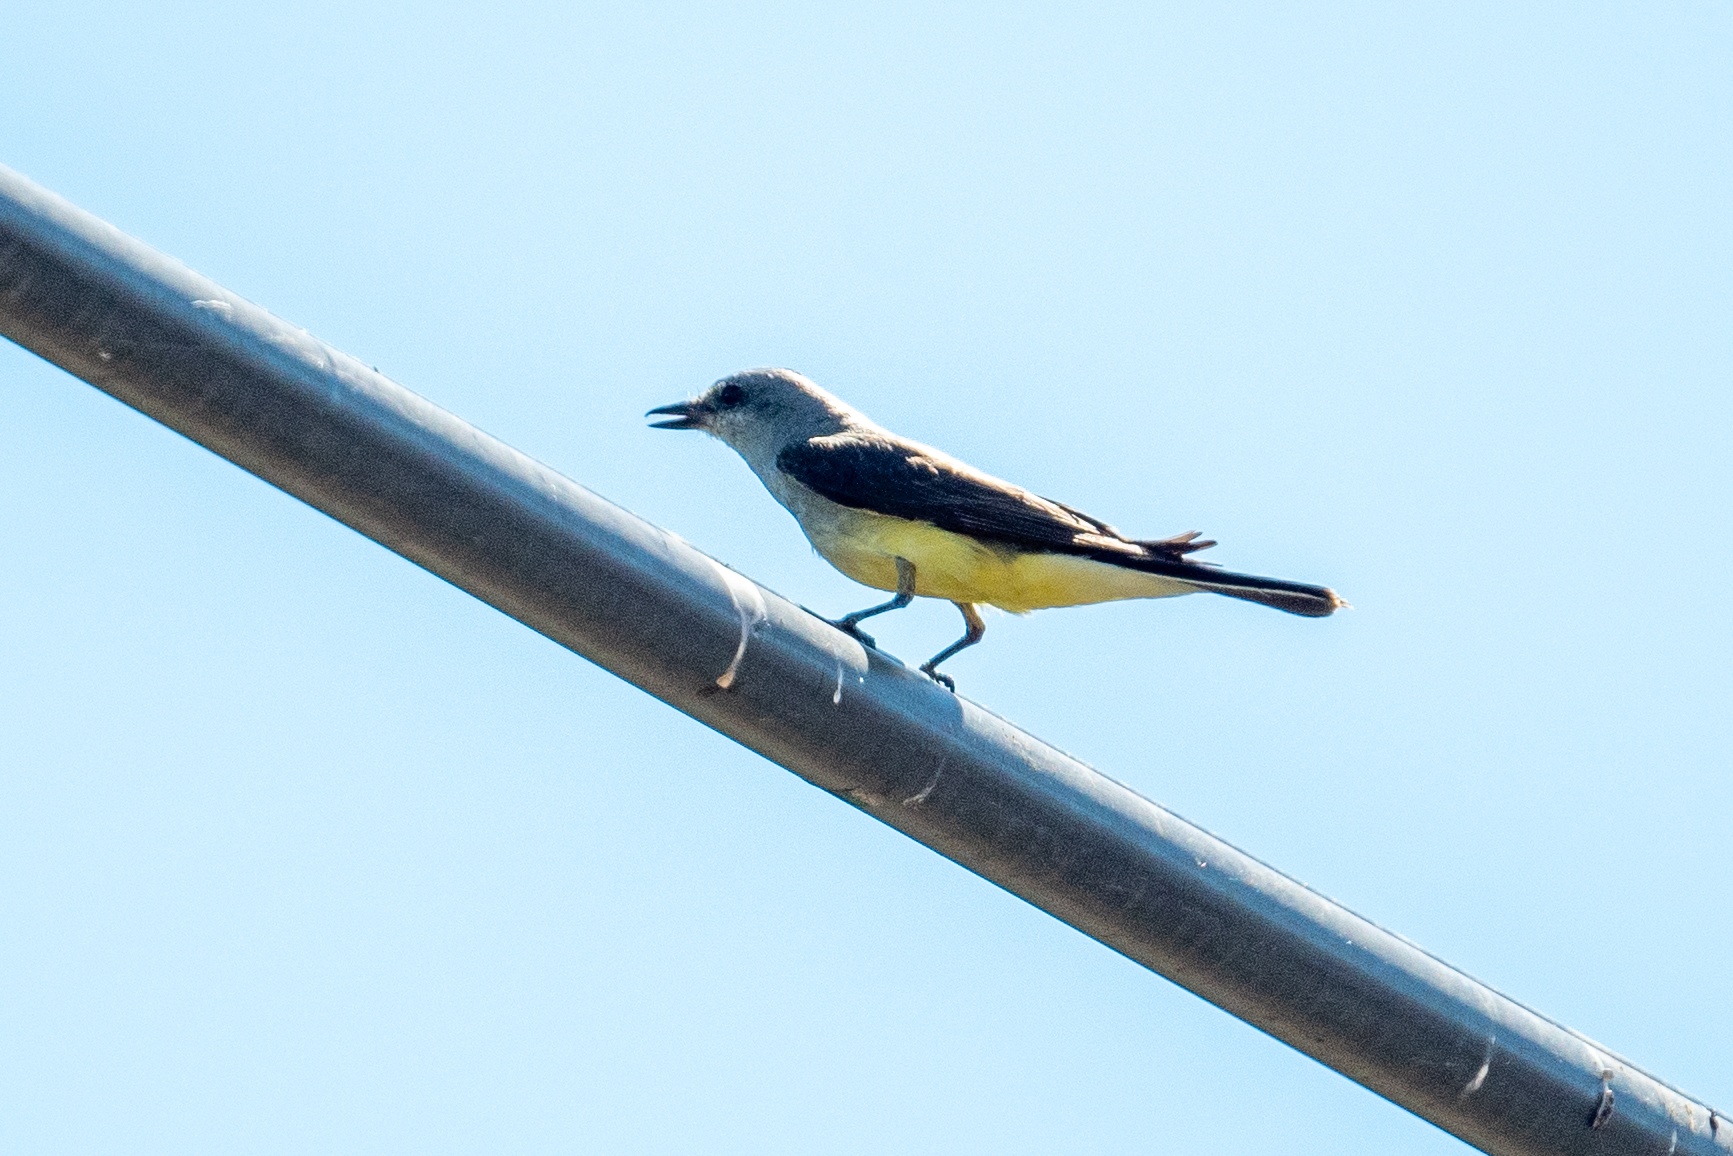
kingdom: Animalia
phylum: Chordata
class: Aves
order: Passeriformes
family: Tyrannidae
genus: Tyrannus
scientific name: Tyrannus verticalis
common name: Western kingbird
